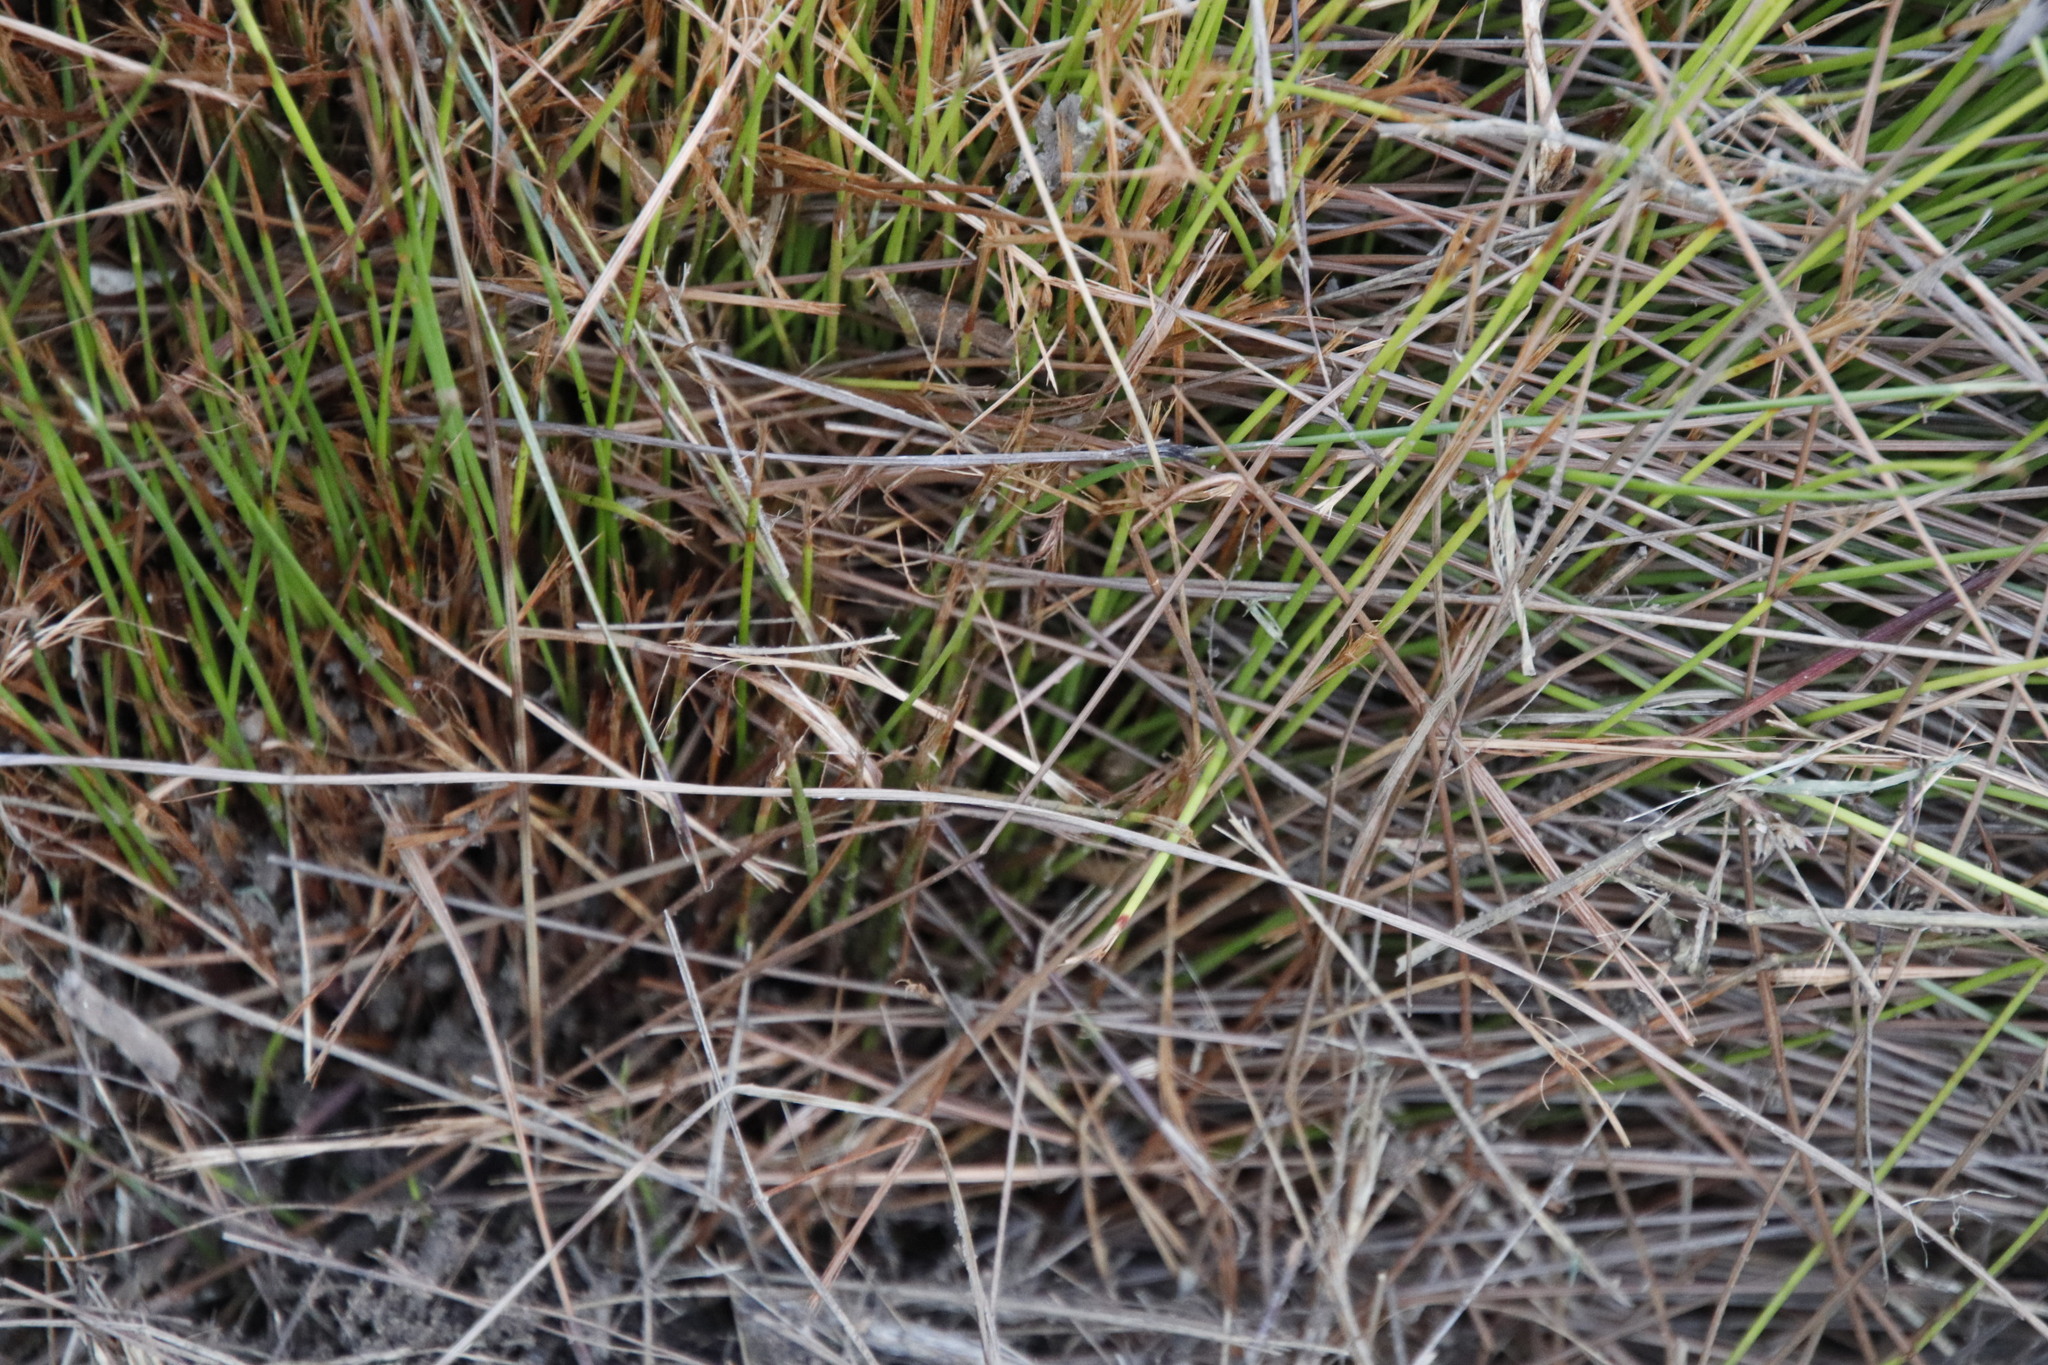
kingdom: Plantae
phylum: Tracheophyta
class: Liliopsida
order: Poales
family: Cyperaceae
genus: Schoenus
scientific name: Schoenus quadrangularis
